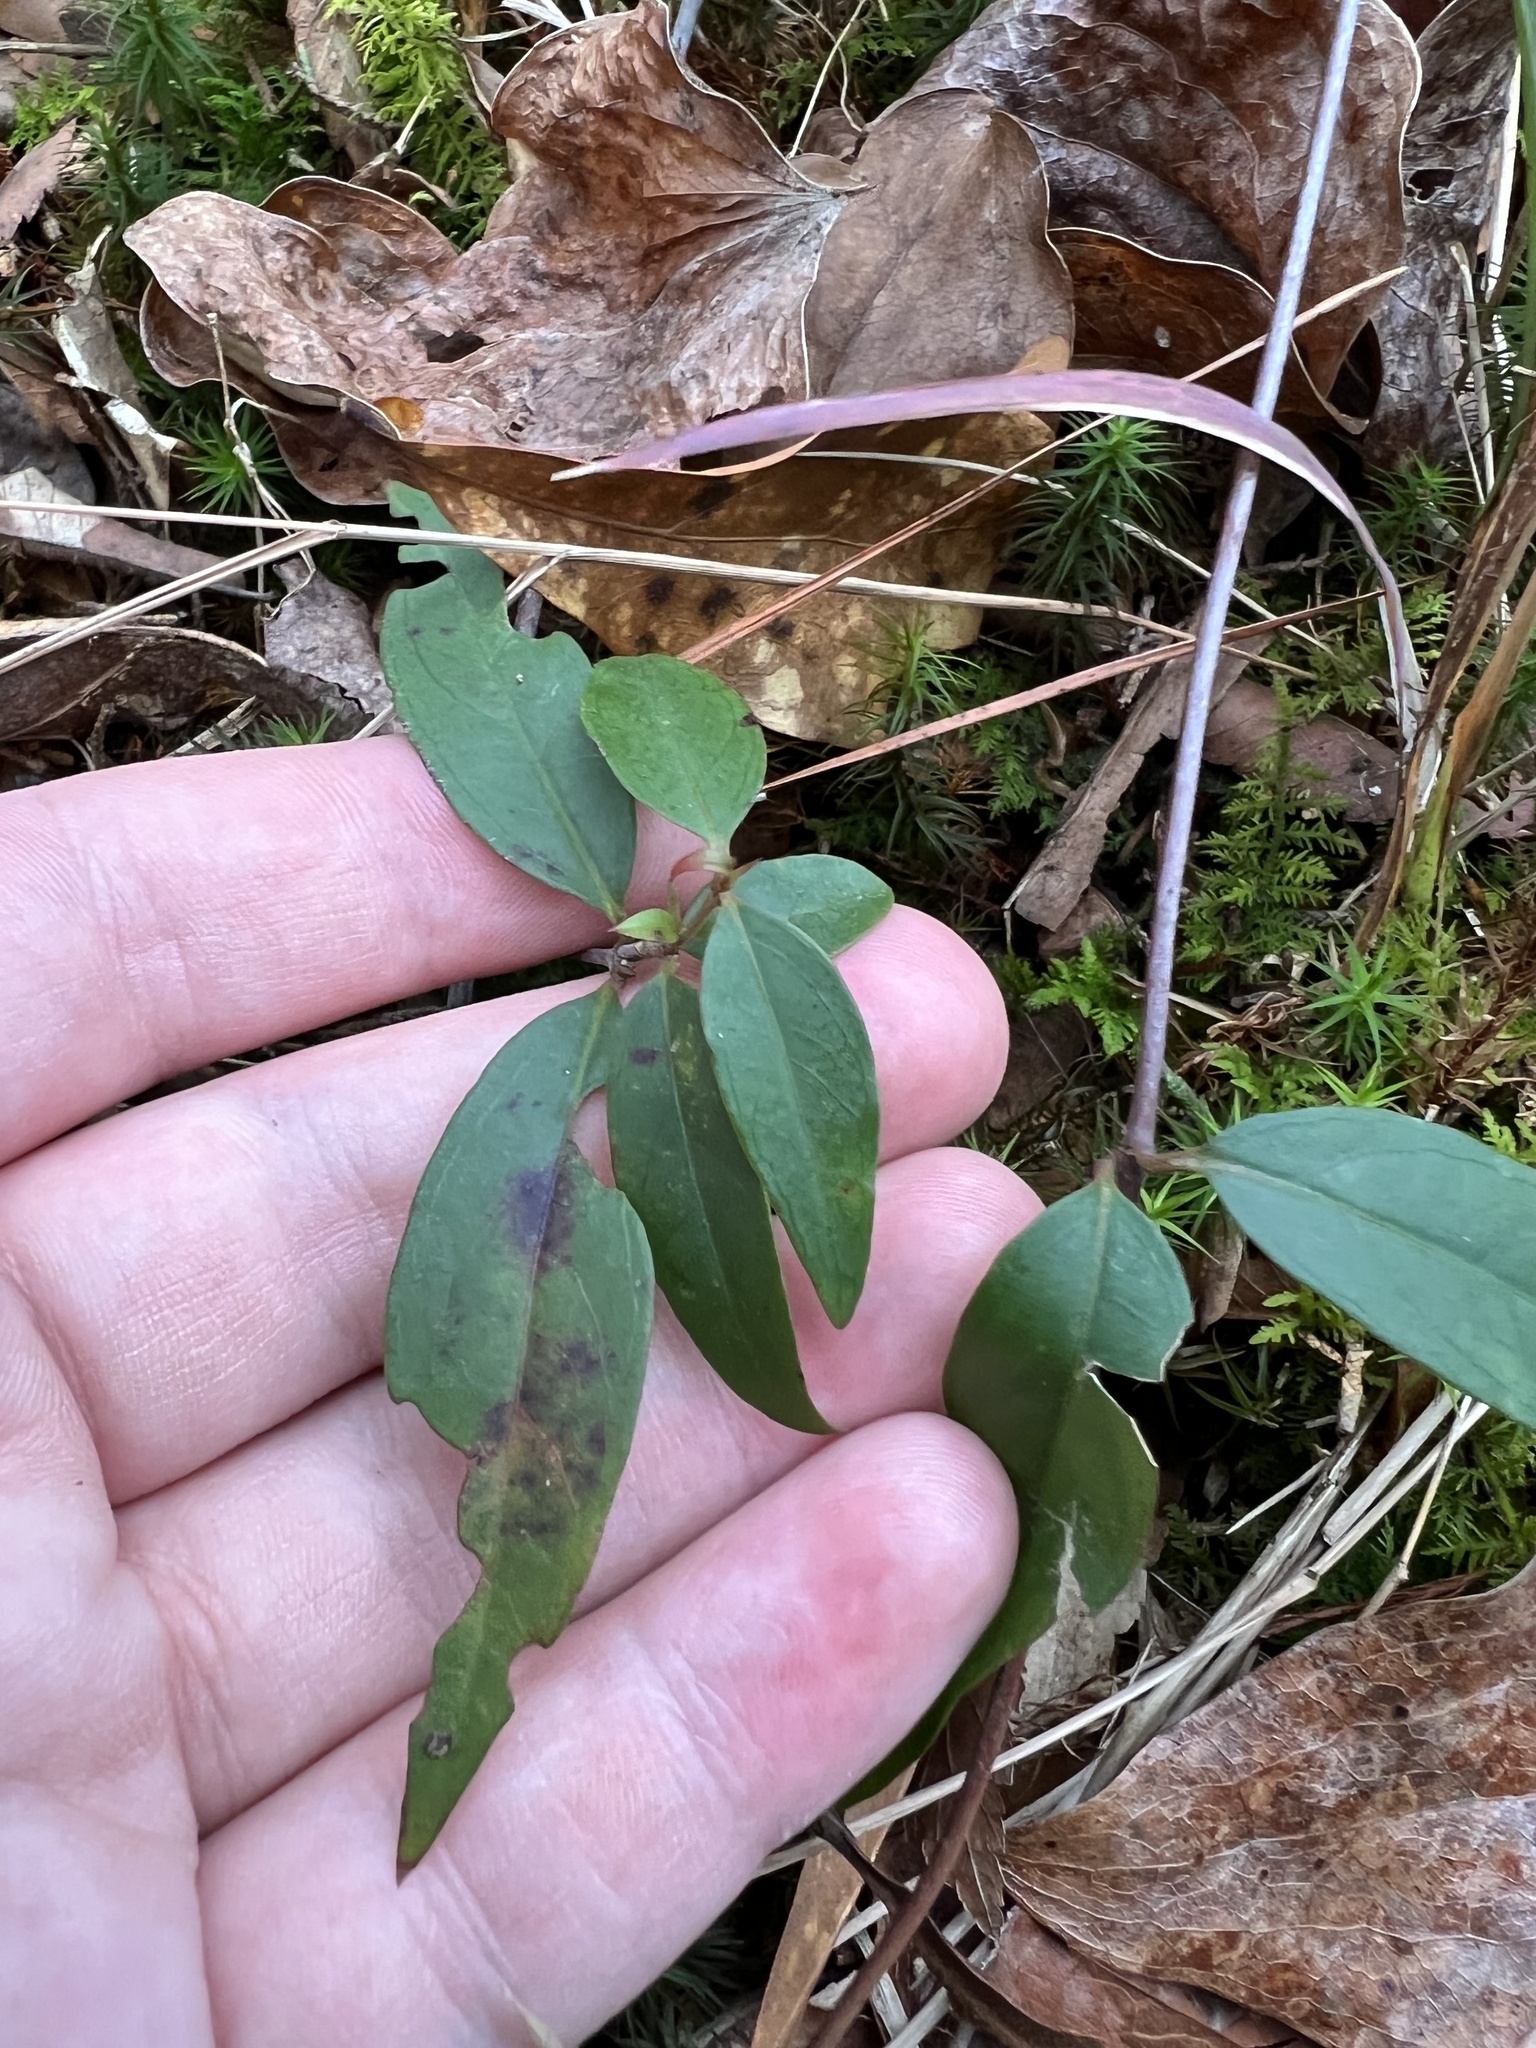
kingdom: Plantae
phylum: Tracheophyta
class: Magnoliopsida
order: Gentianales
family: Gelsemiaceae
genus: Gelsemium
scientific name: Gelsemium sempervirens
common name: Carolina-jasmine
